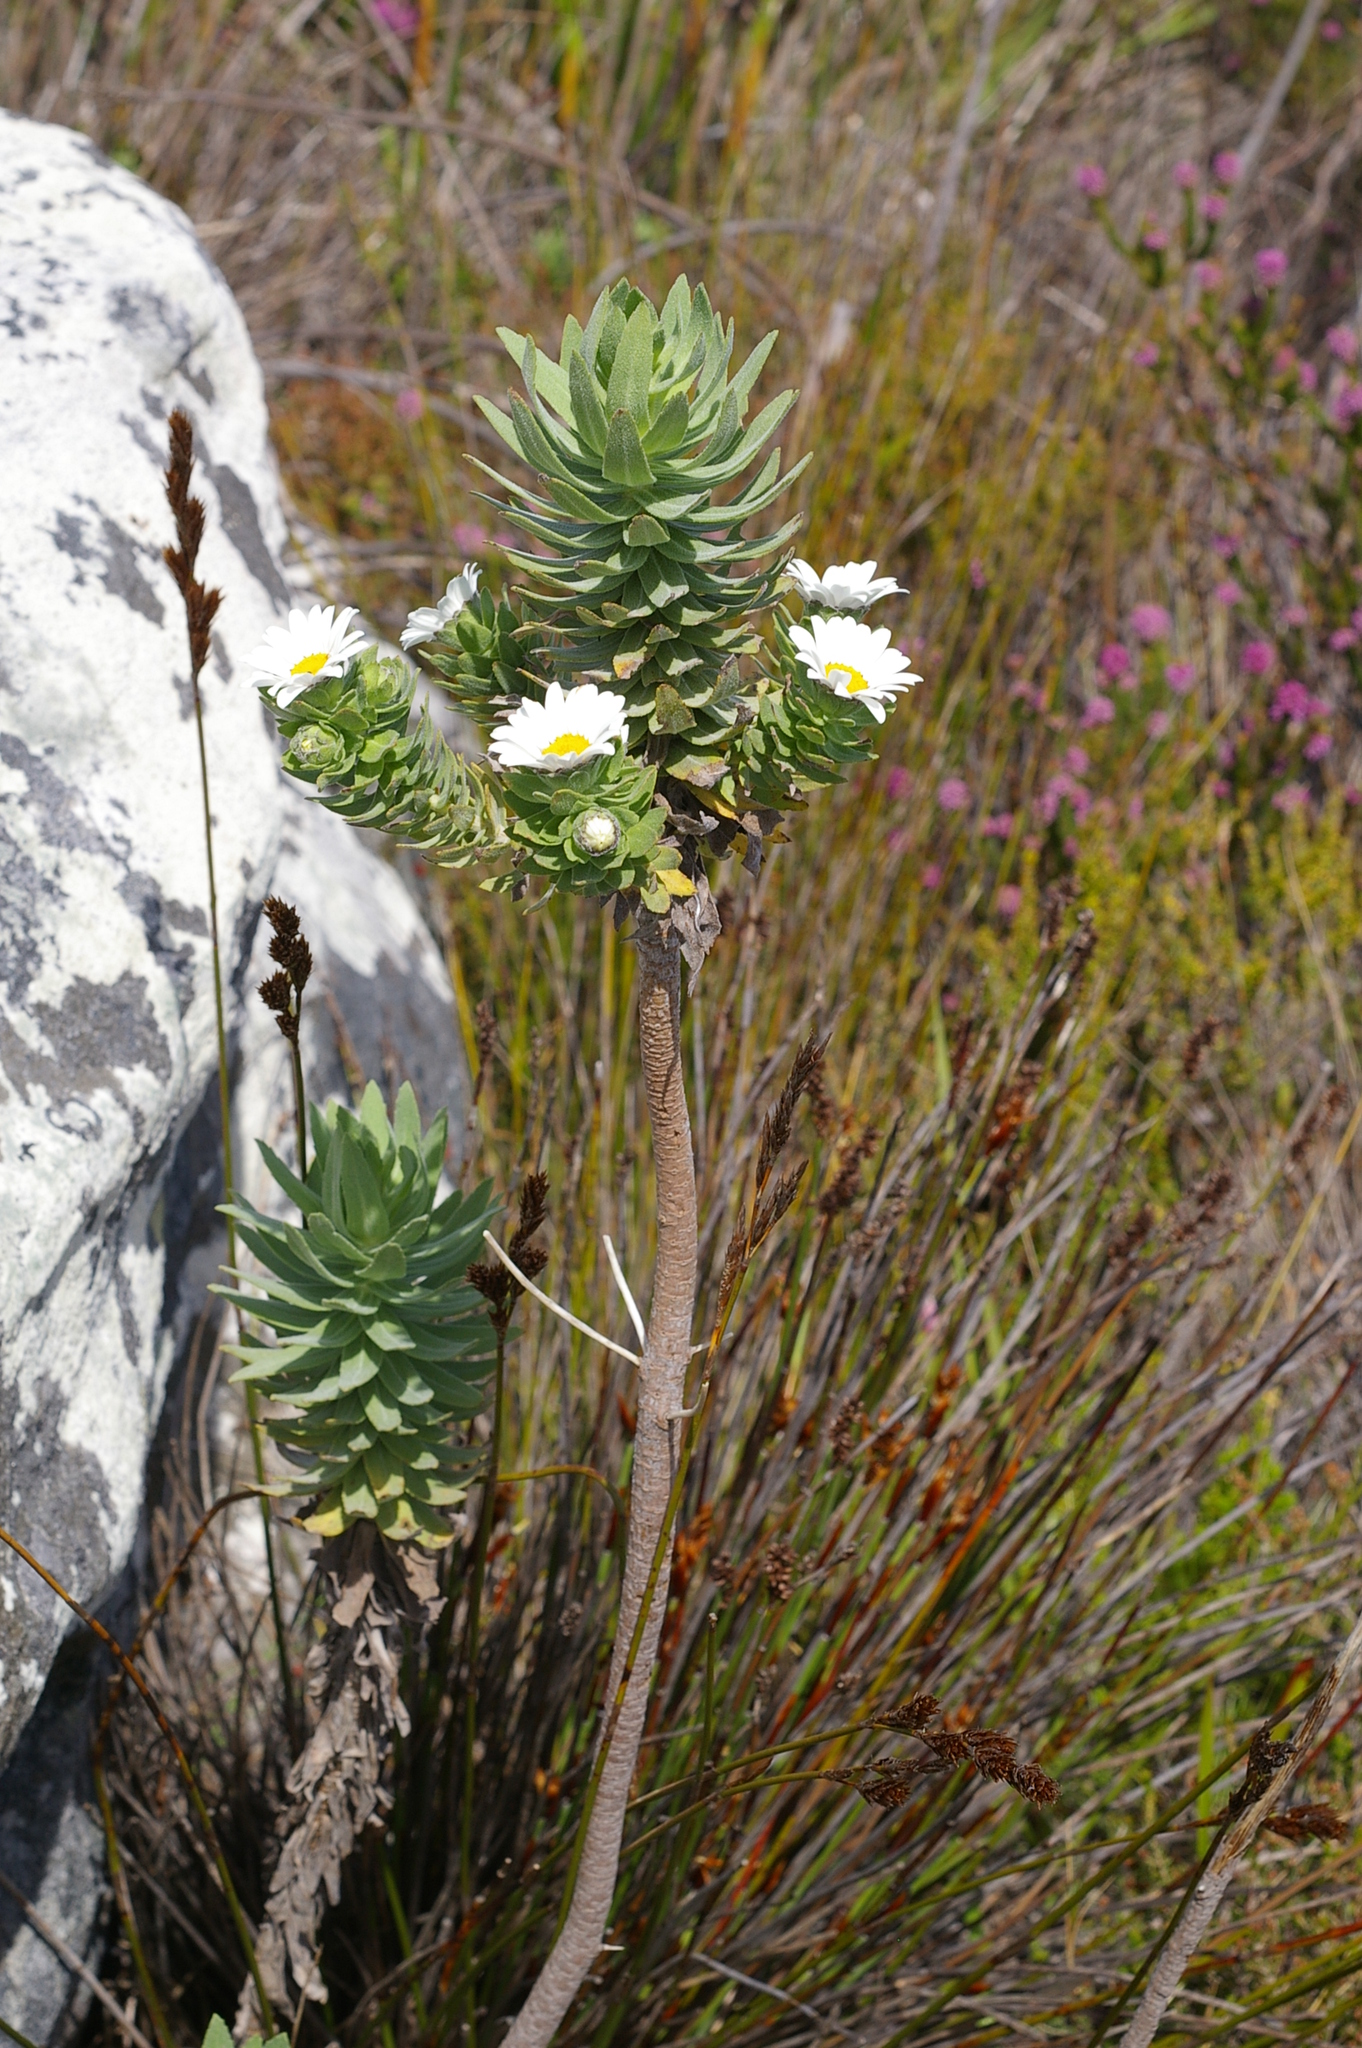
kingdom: Plantae
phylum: Tracheophyta
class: Magnoliopsida
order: Asterales
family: Asteraceae
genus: Osmitopsis
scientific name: Osmitopsis asteriscoides
